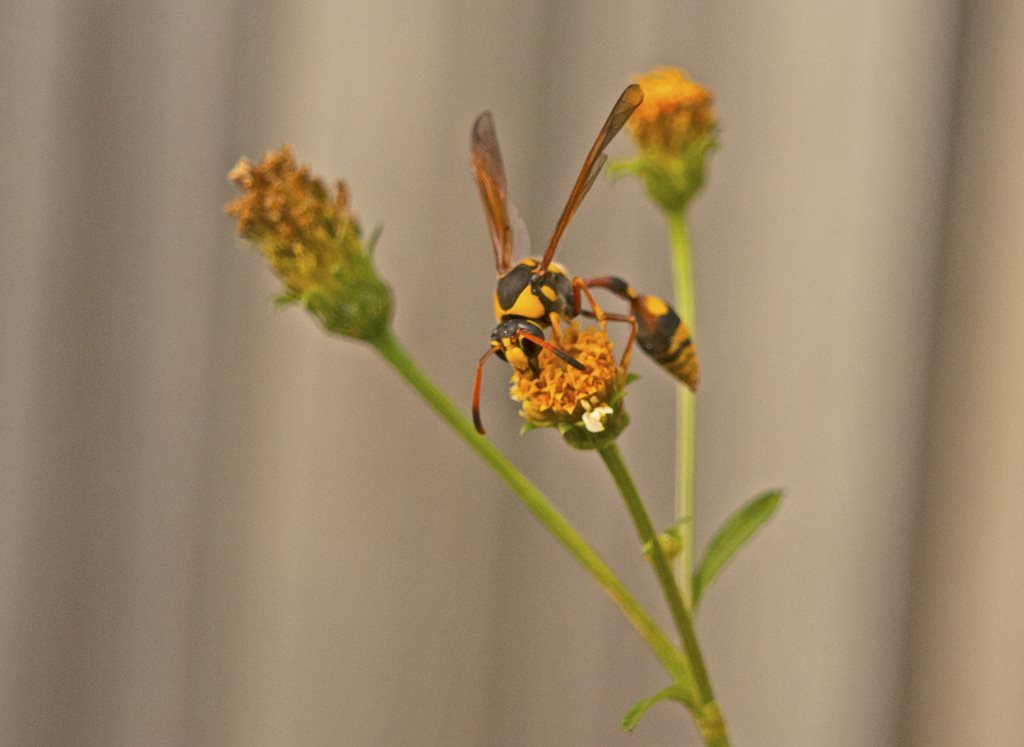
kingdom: Animalia
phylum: Arthropoda
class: Insecta
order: Hymenoptera
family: Eumenidae
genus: Delta
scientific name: Delta campaniforme
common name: Yellow and black potter wasp
